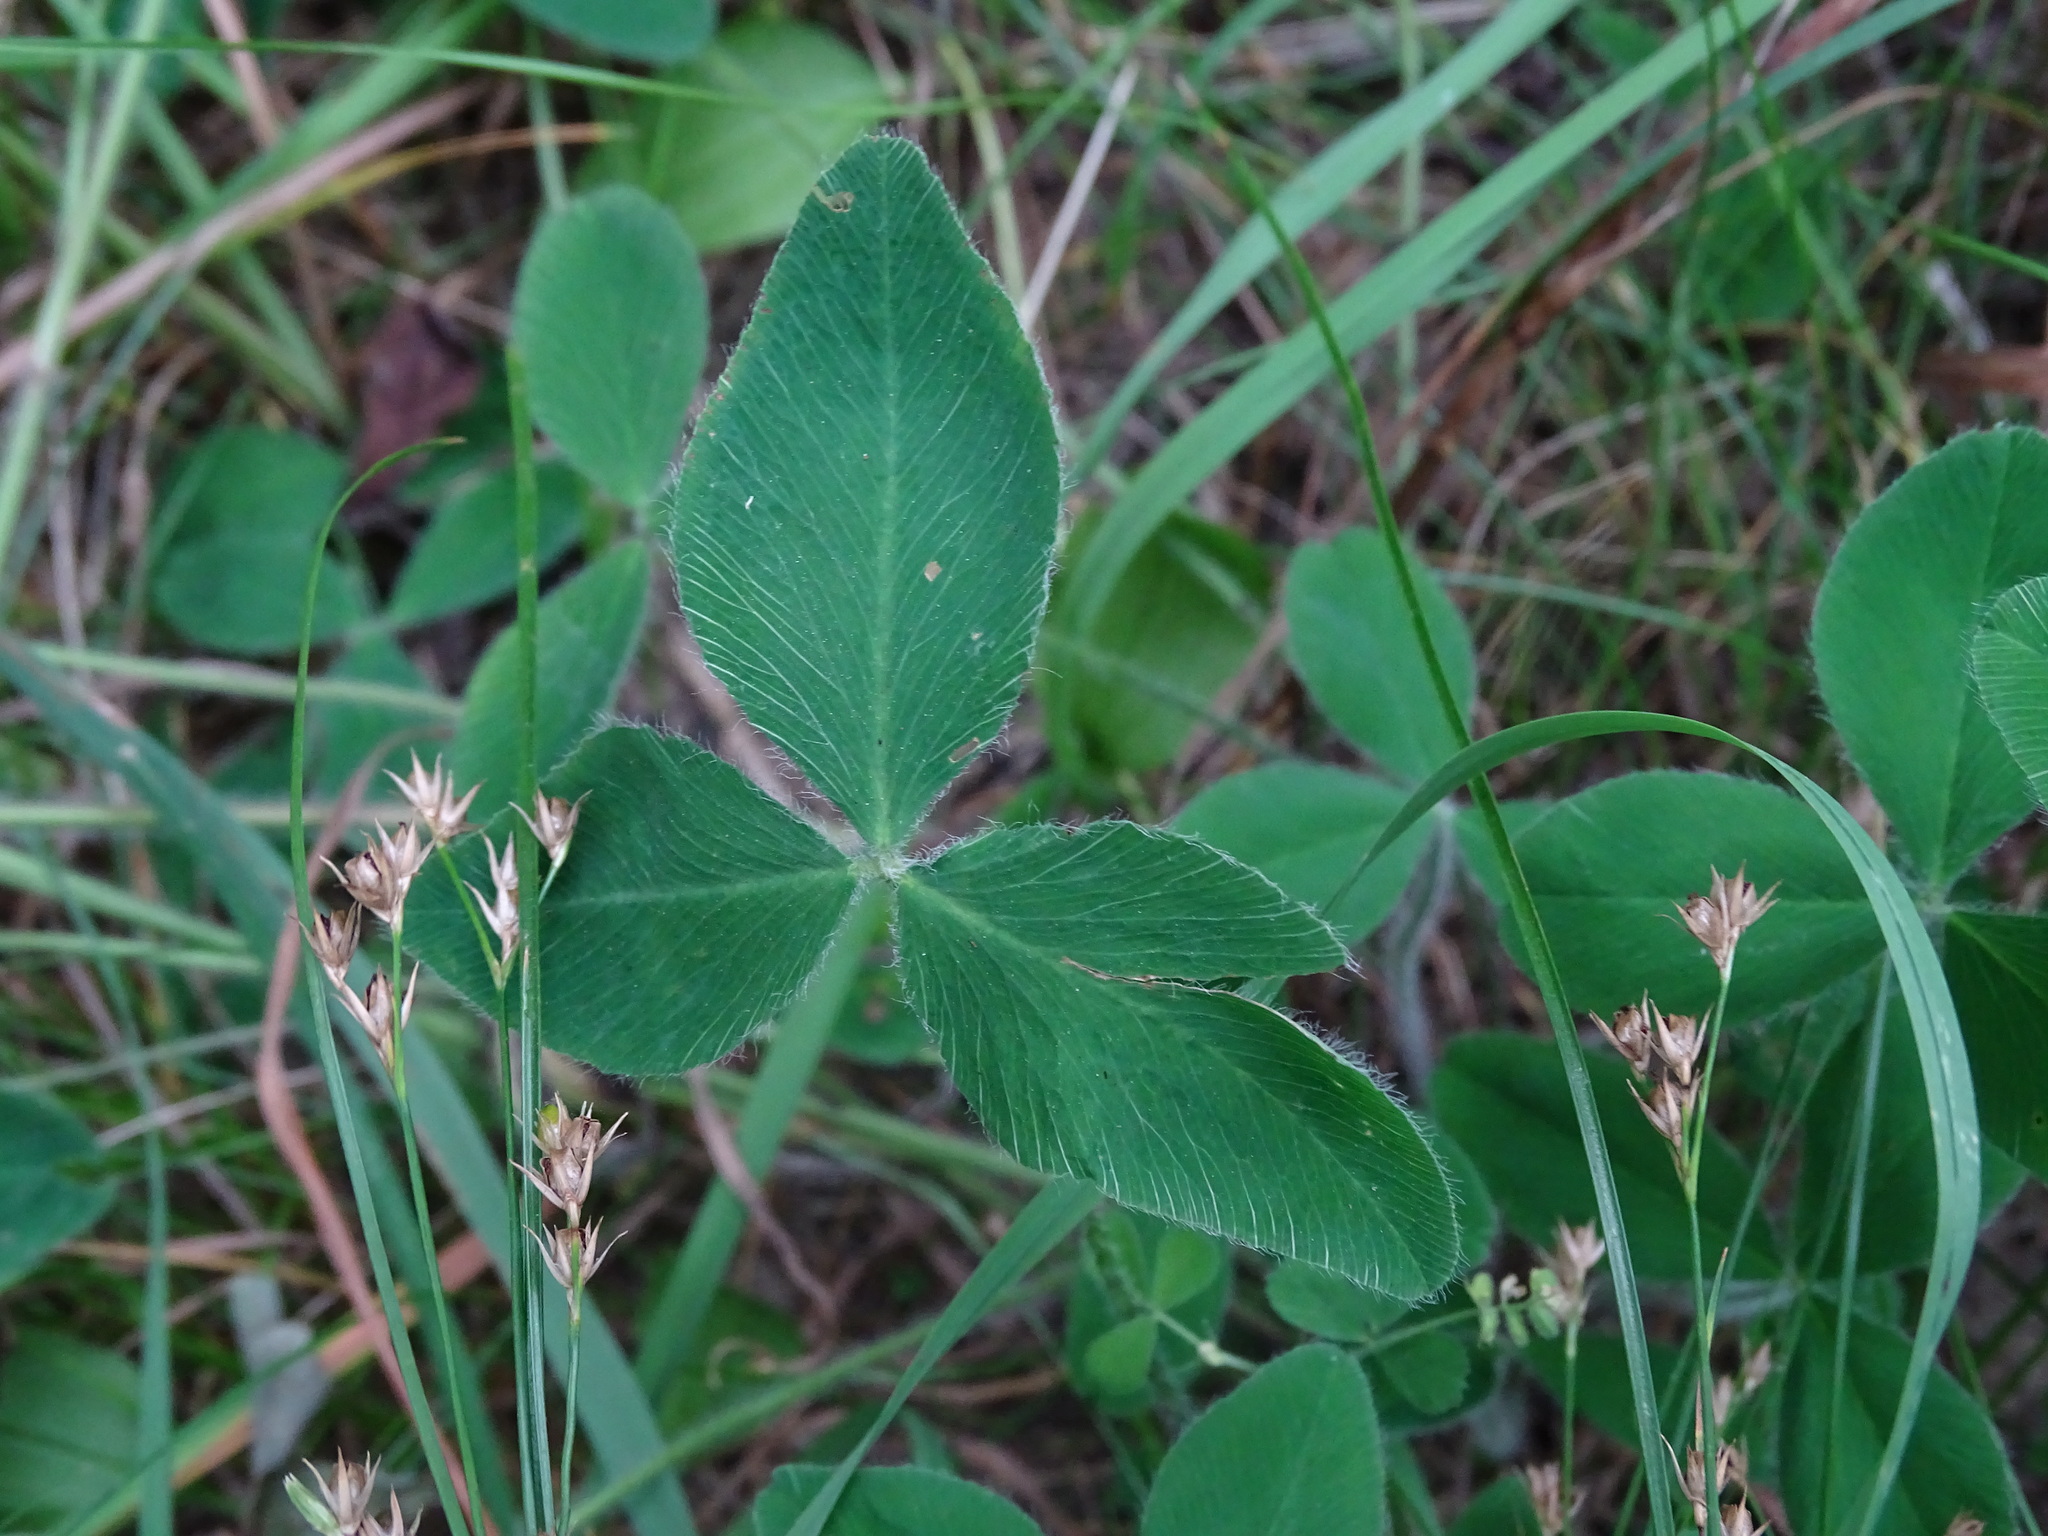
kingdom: Plantae
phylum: Tracheophyta
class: Magnoliopsida
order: Fabales
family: Fabaceae
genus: Trifolium
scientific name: Trifolium pratense
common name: Red clover
